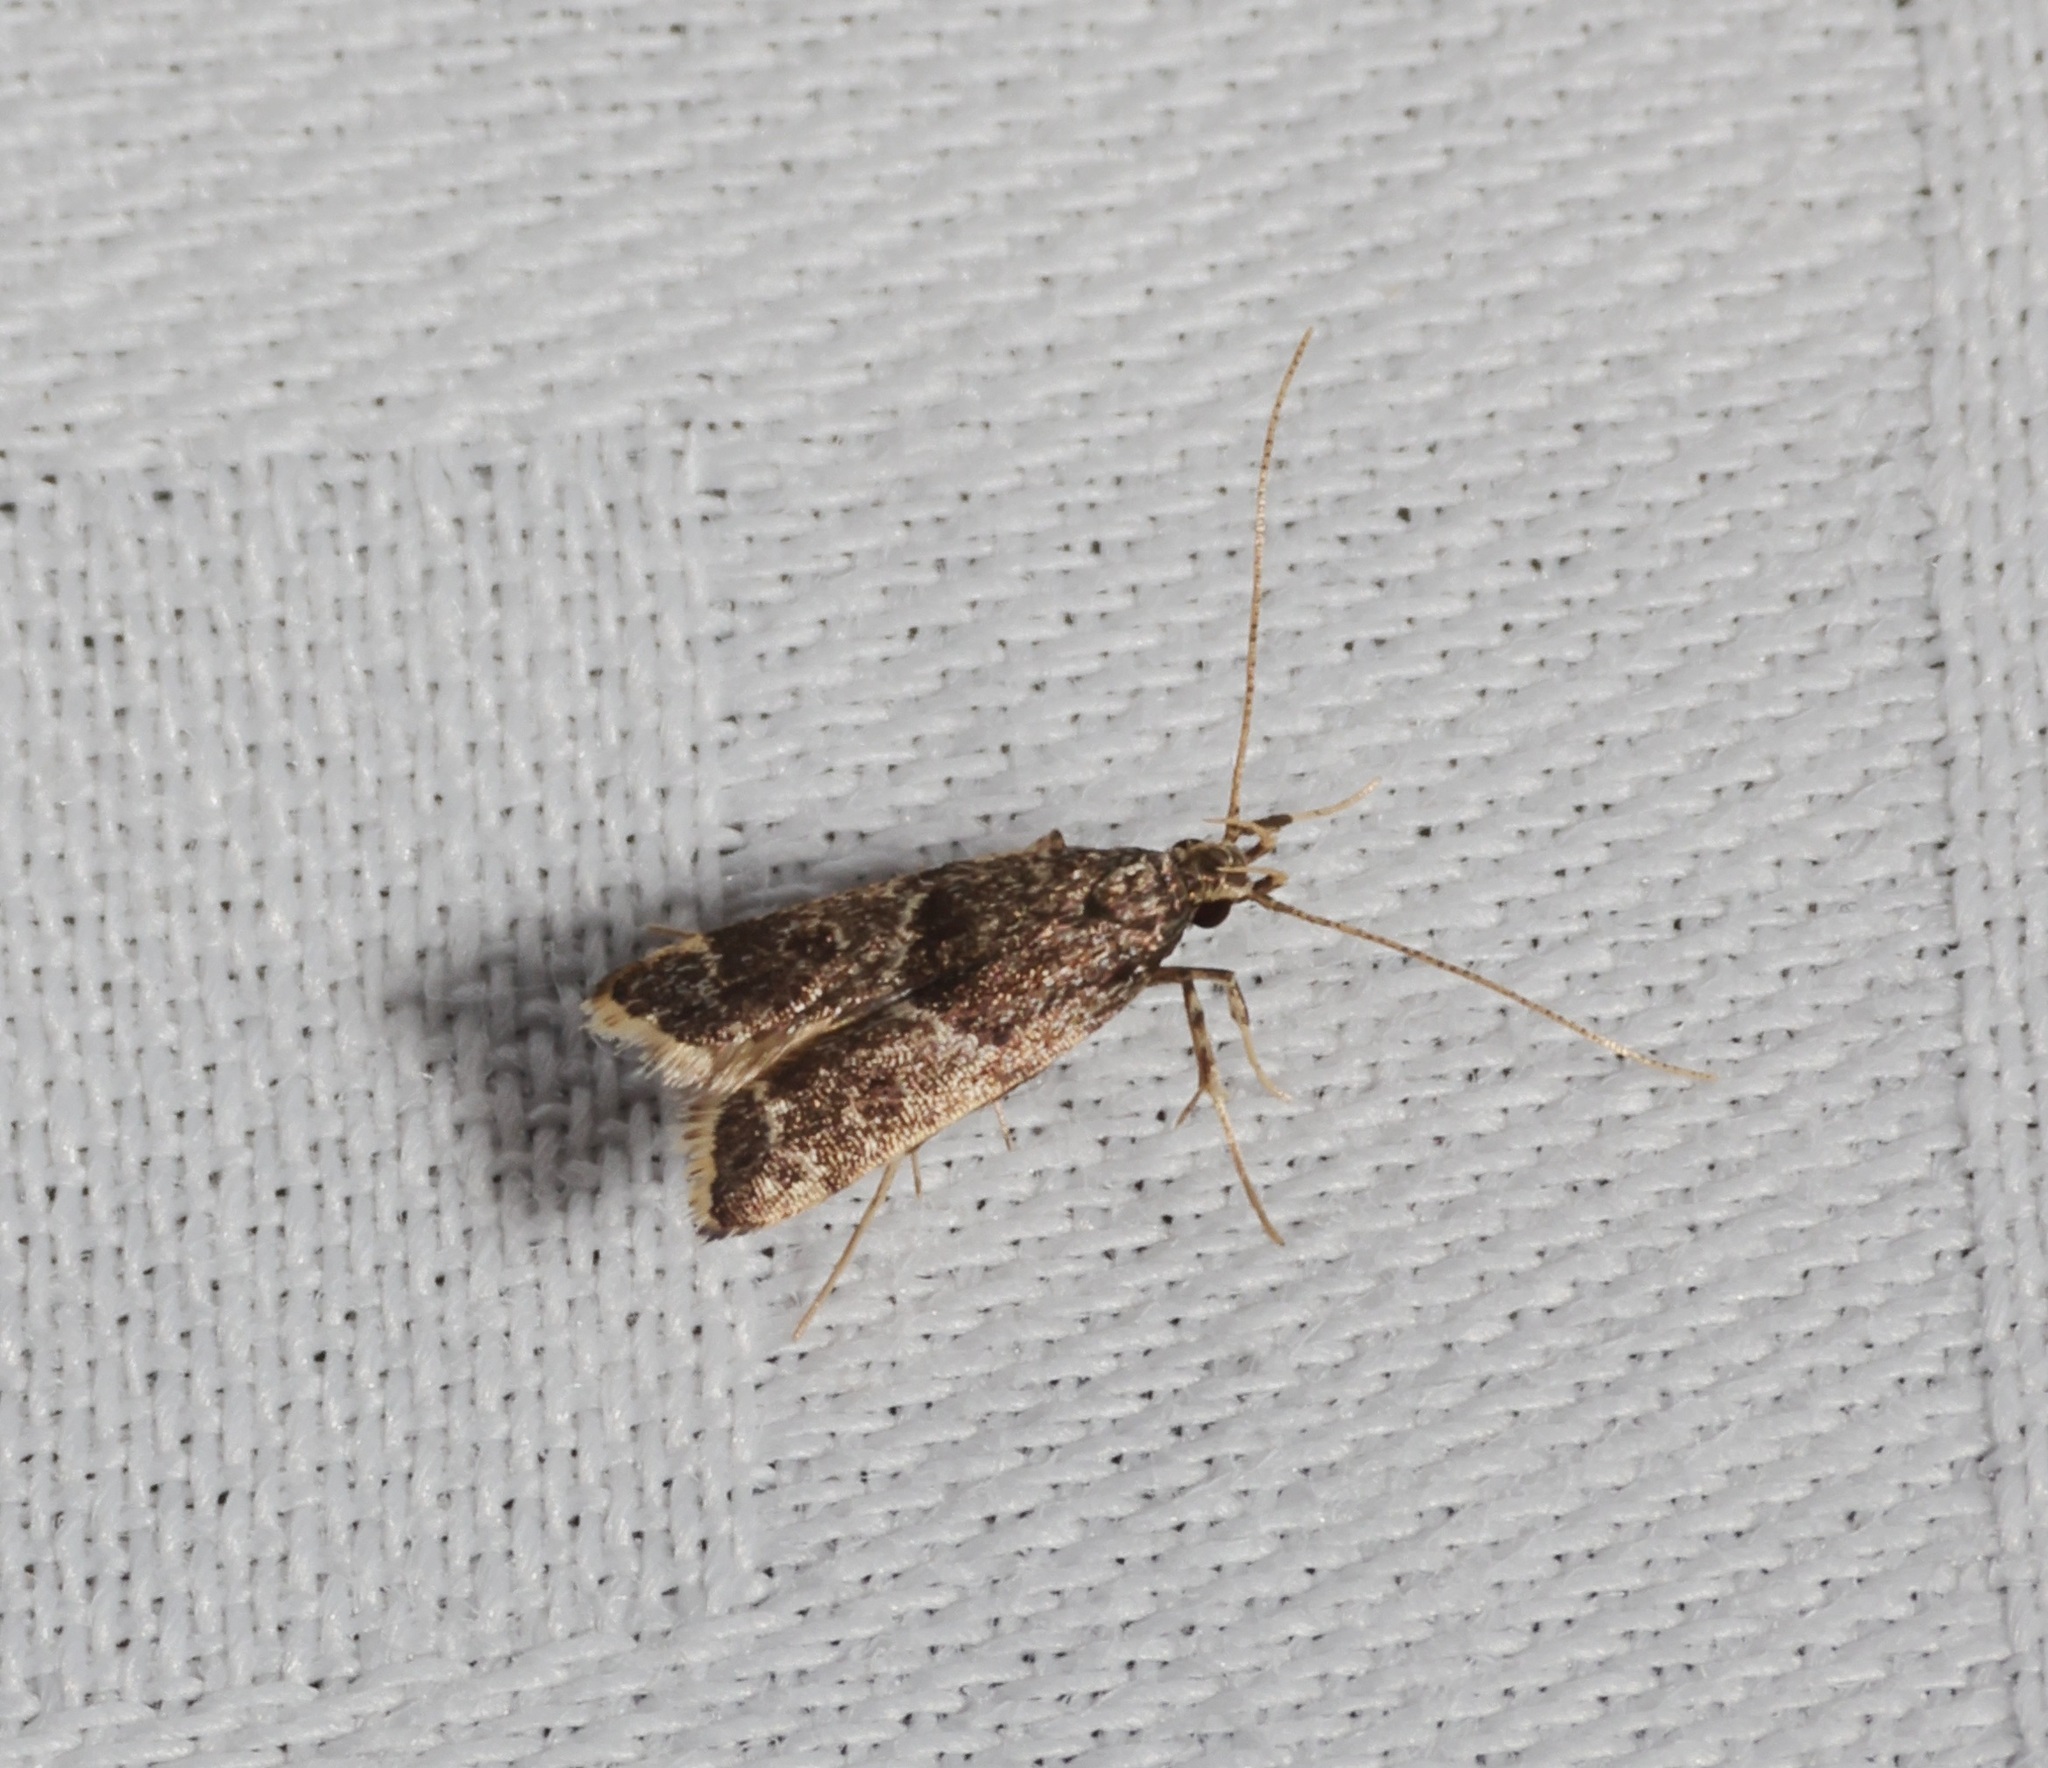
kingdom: Animalia
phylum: Arthropoda
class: Insecta
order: Lepidoptera
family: Lecithoceridae
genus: Athymoris
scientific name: Athymoris martialis
